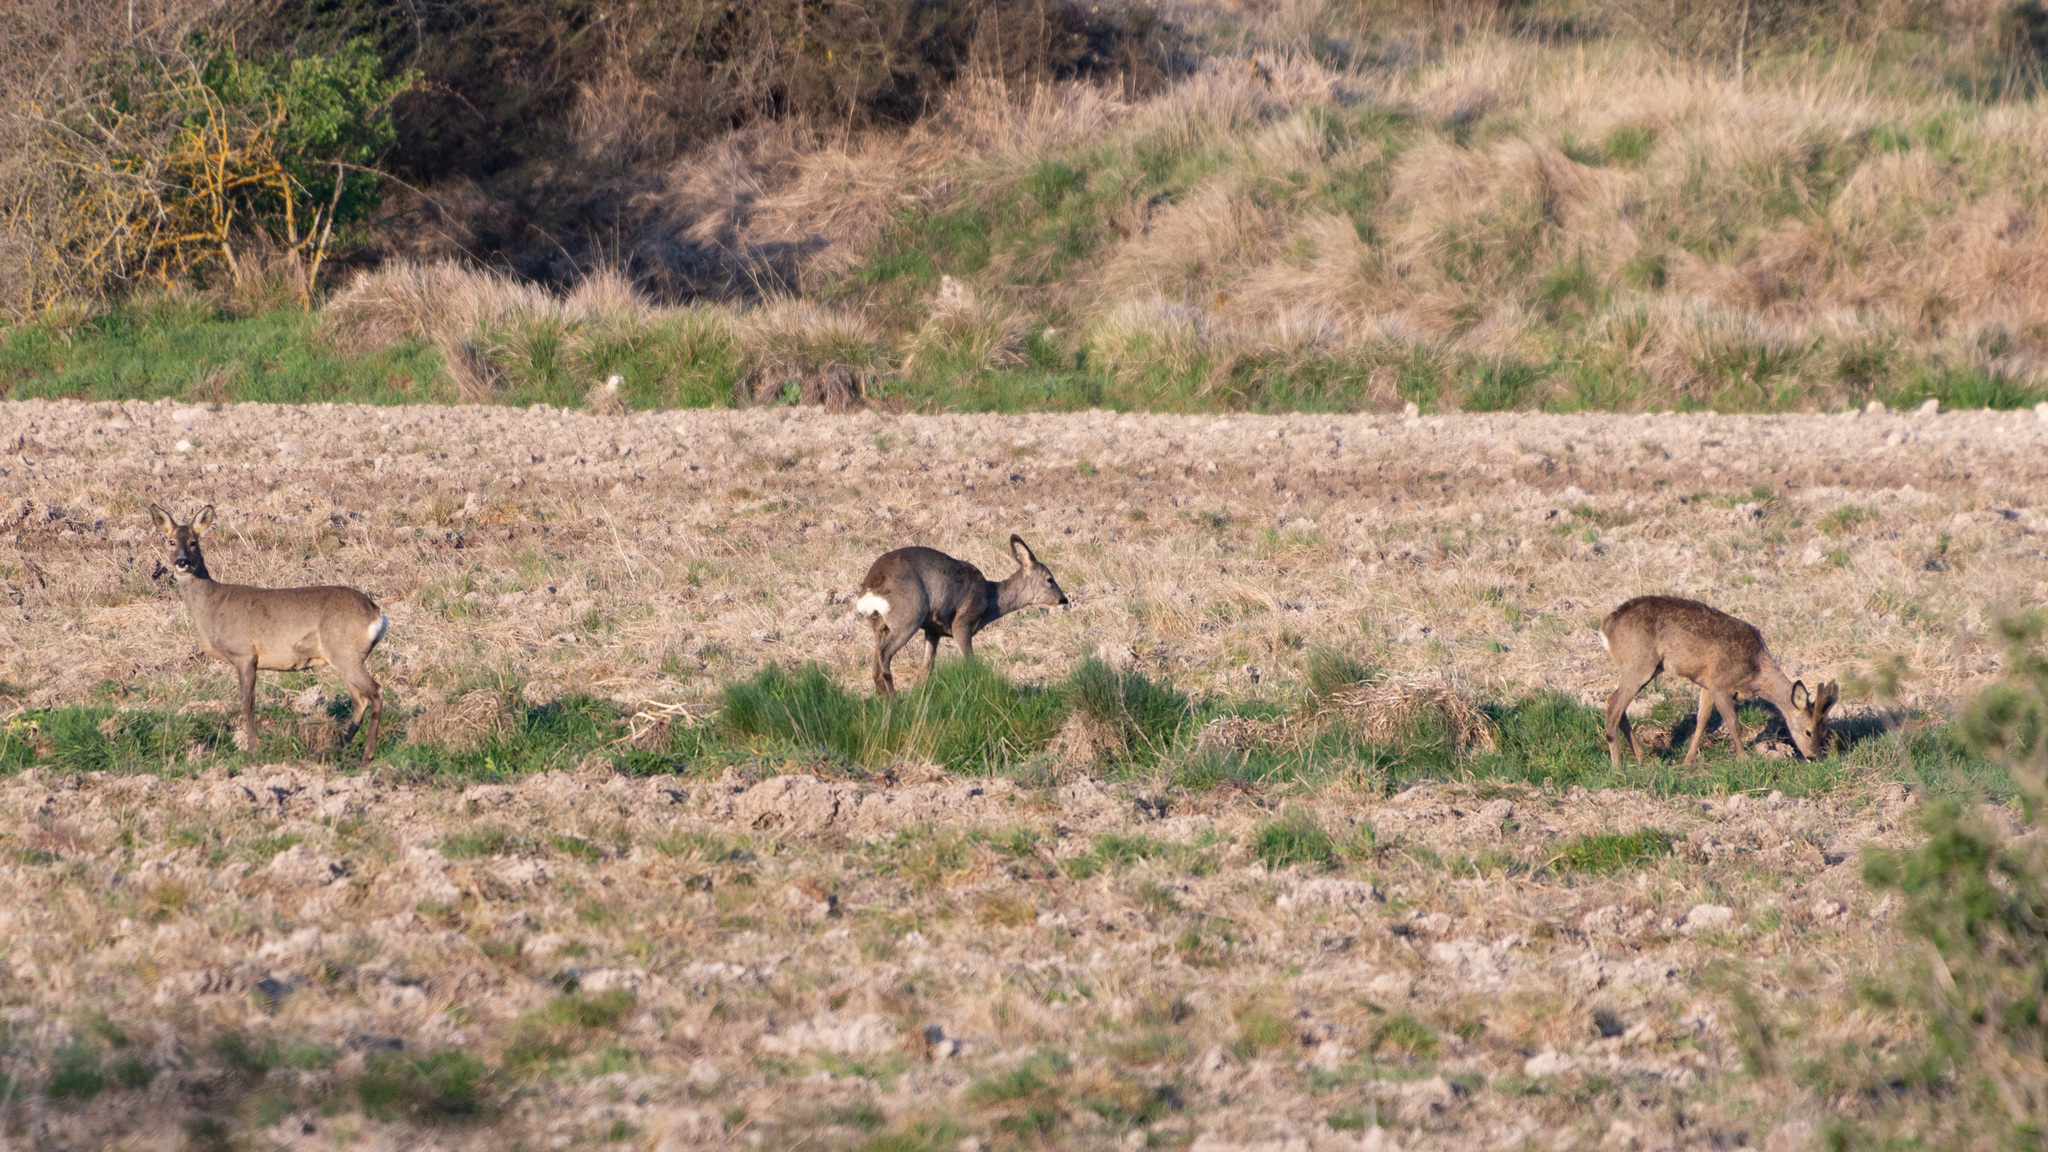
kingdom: Animalia
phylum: Chordata
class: Mammalia
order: Artiodactyla
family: Cervidae
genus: Capreolus
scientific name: Capreolus capreolus
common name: Western roe deer
